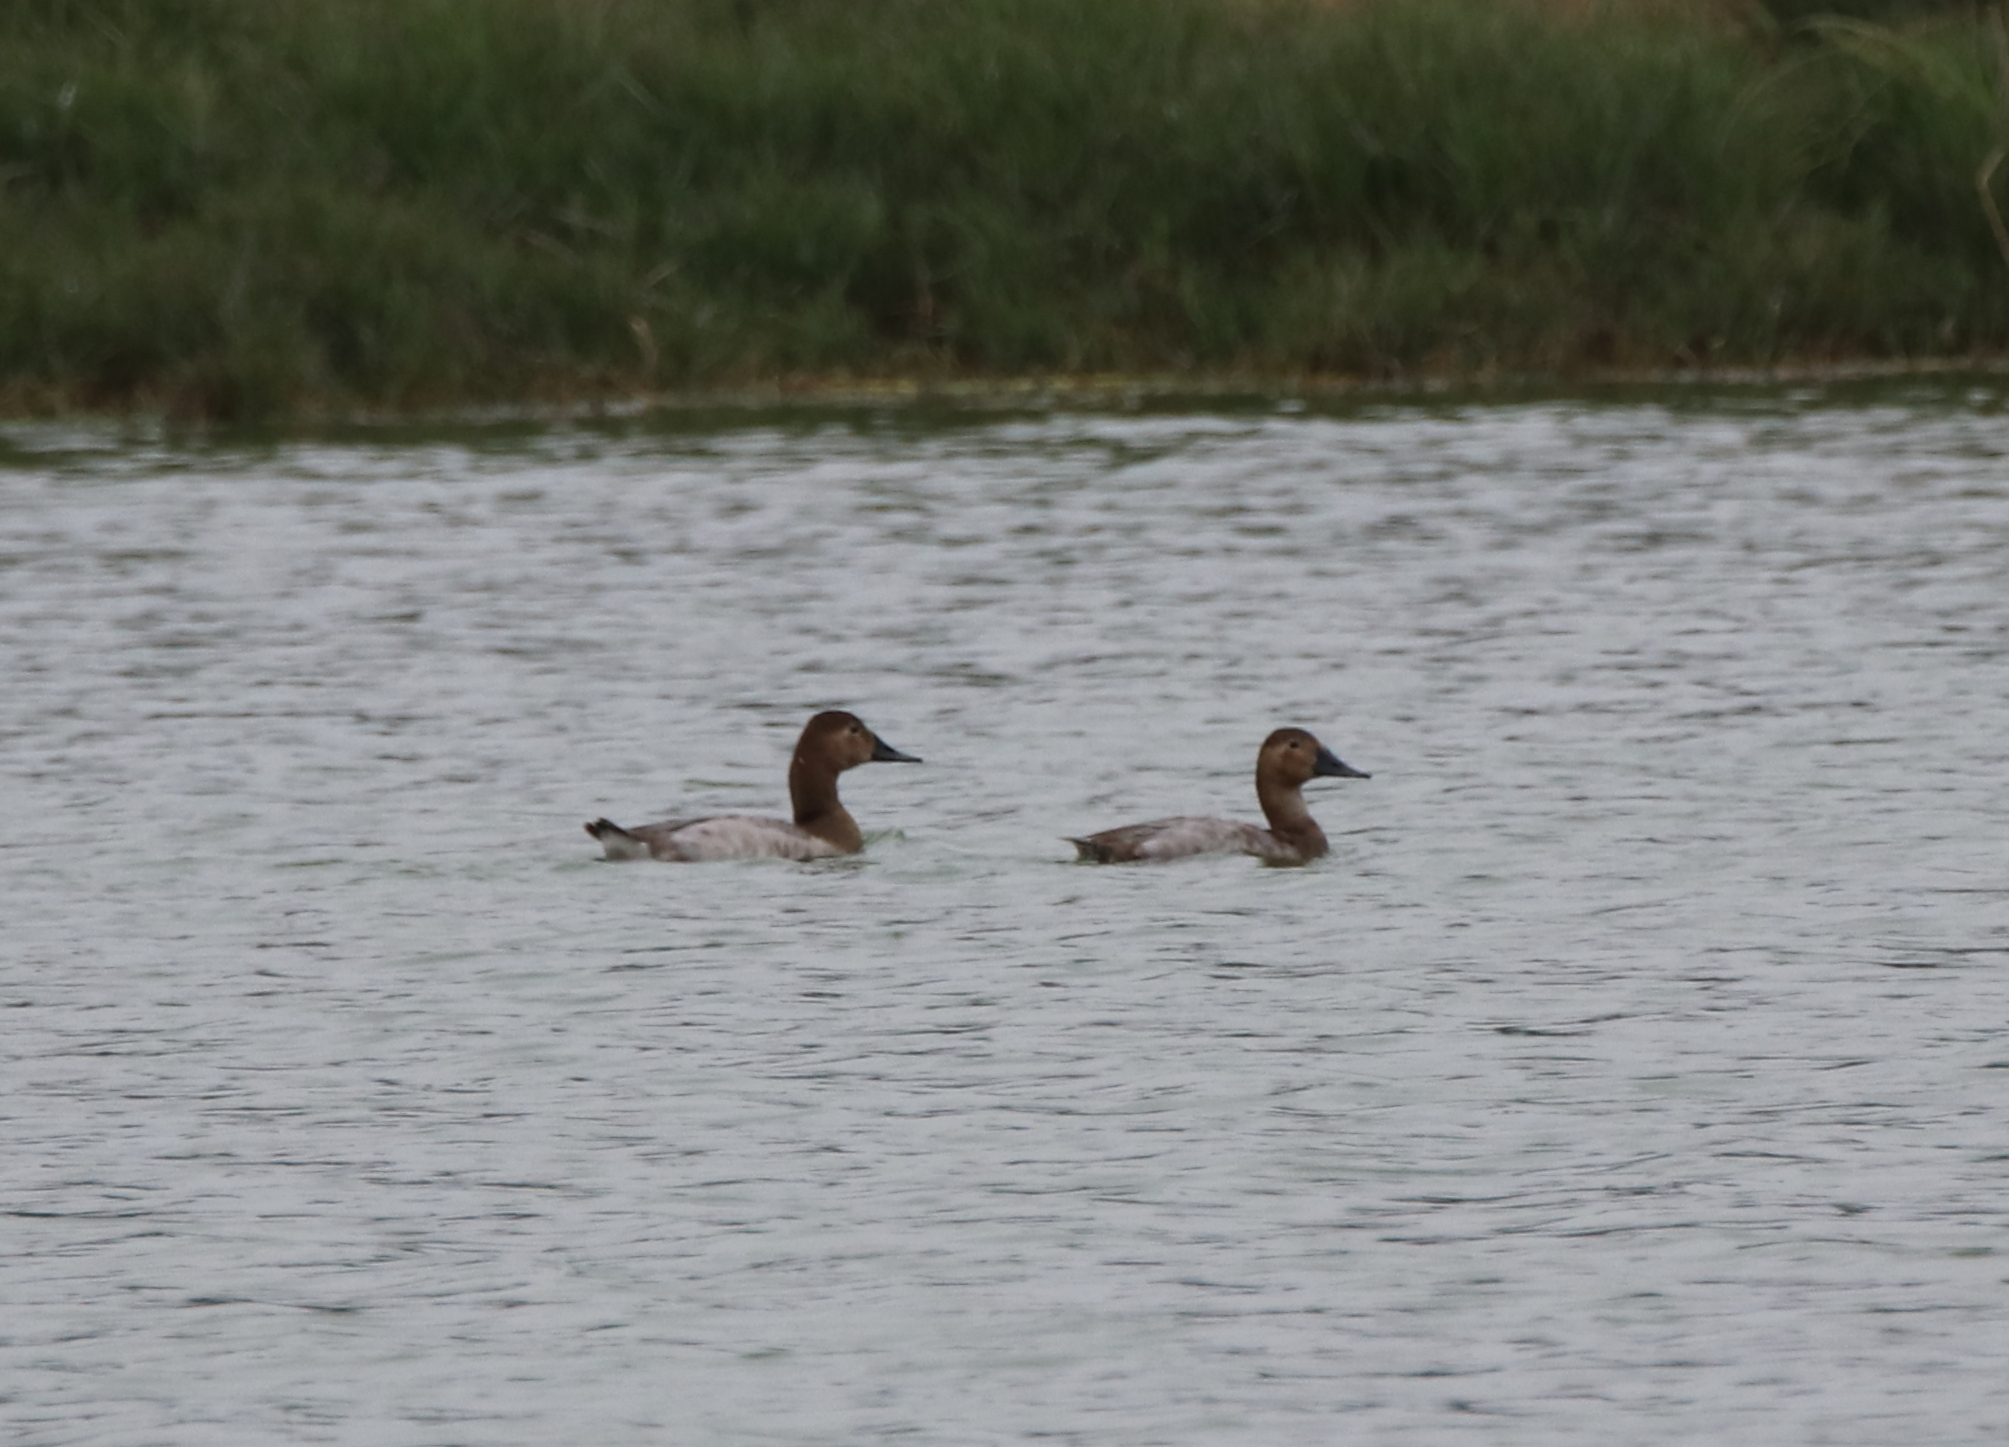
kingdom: Animalia
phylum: Chordata
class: Aves
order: Anseriformes
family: Anatidae
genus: Aythya
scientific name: Aythya valisineria
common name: Canvasback
